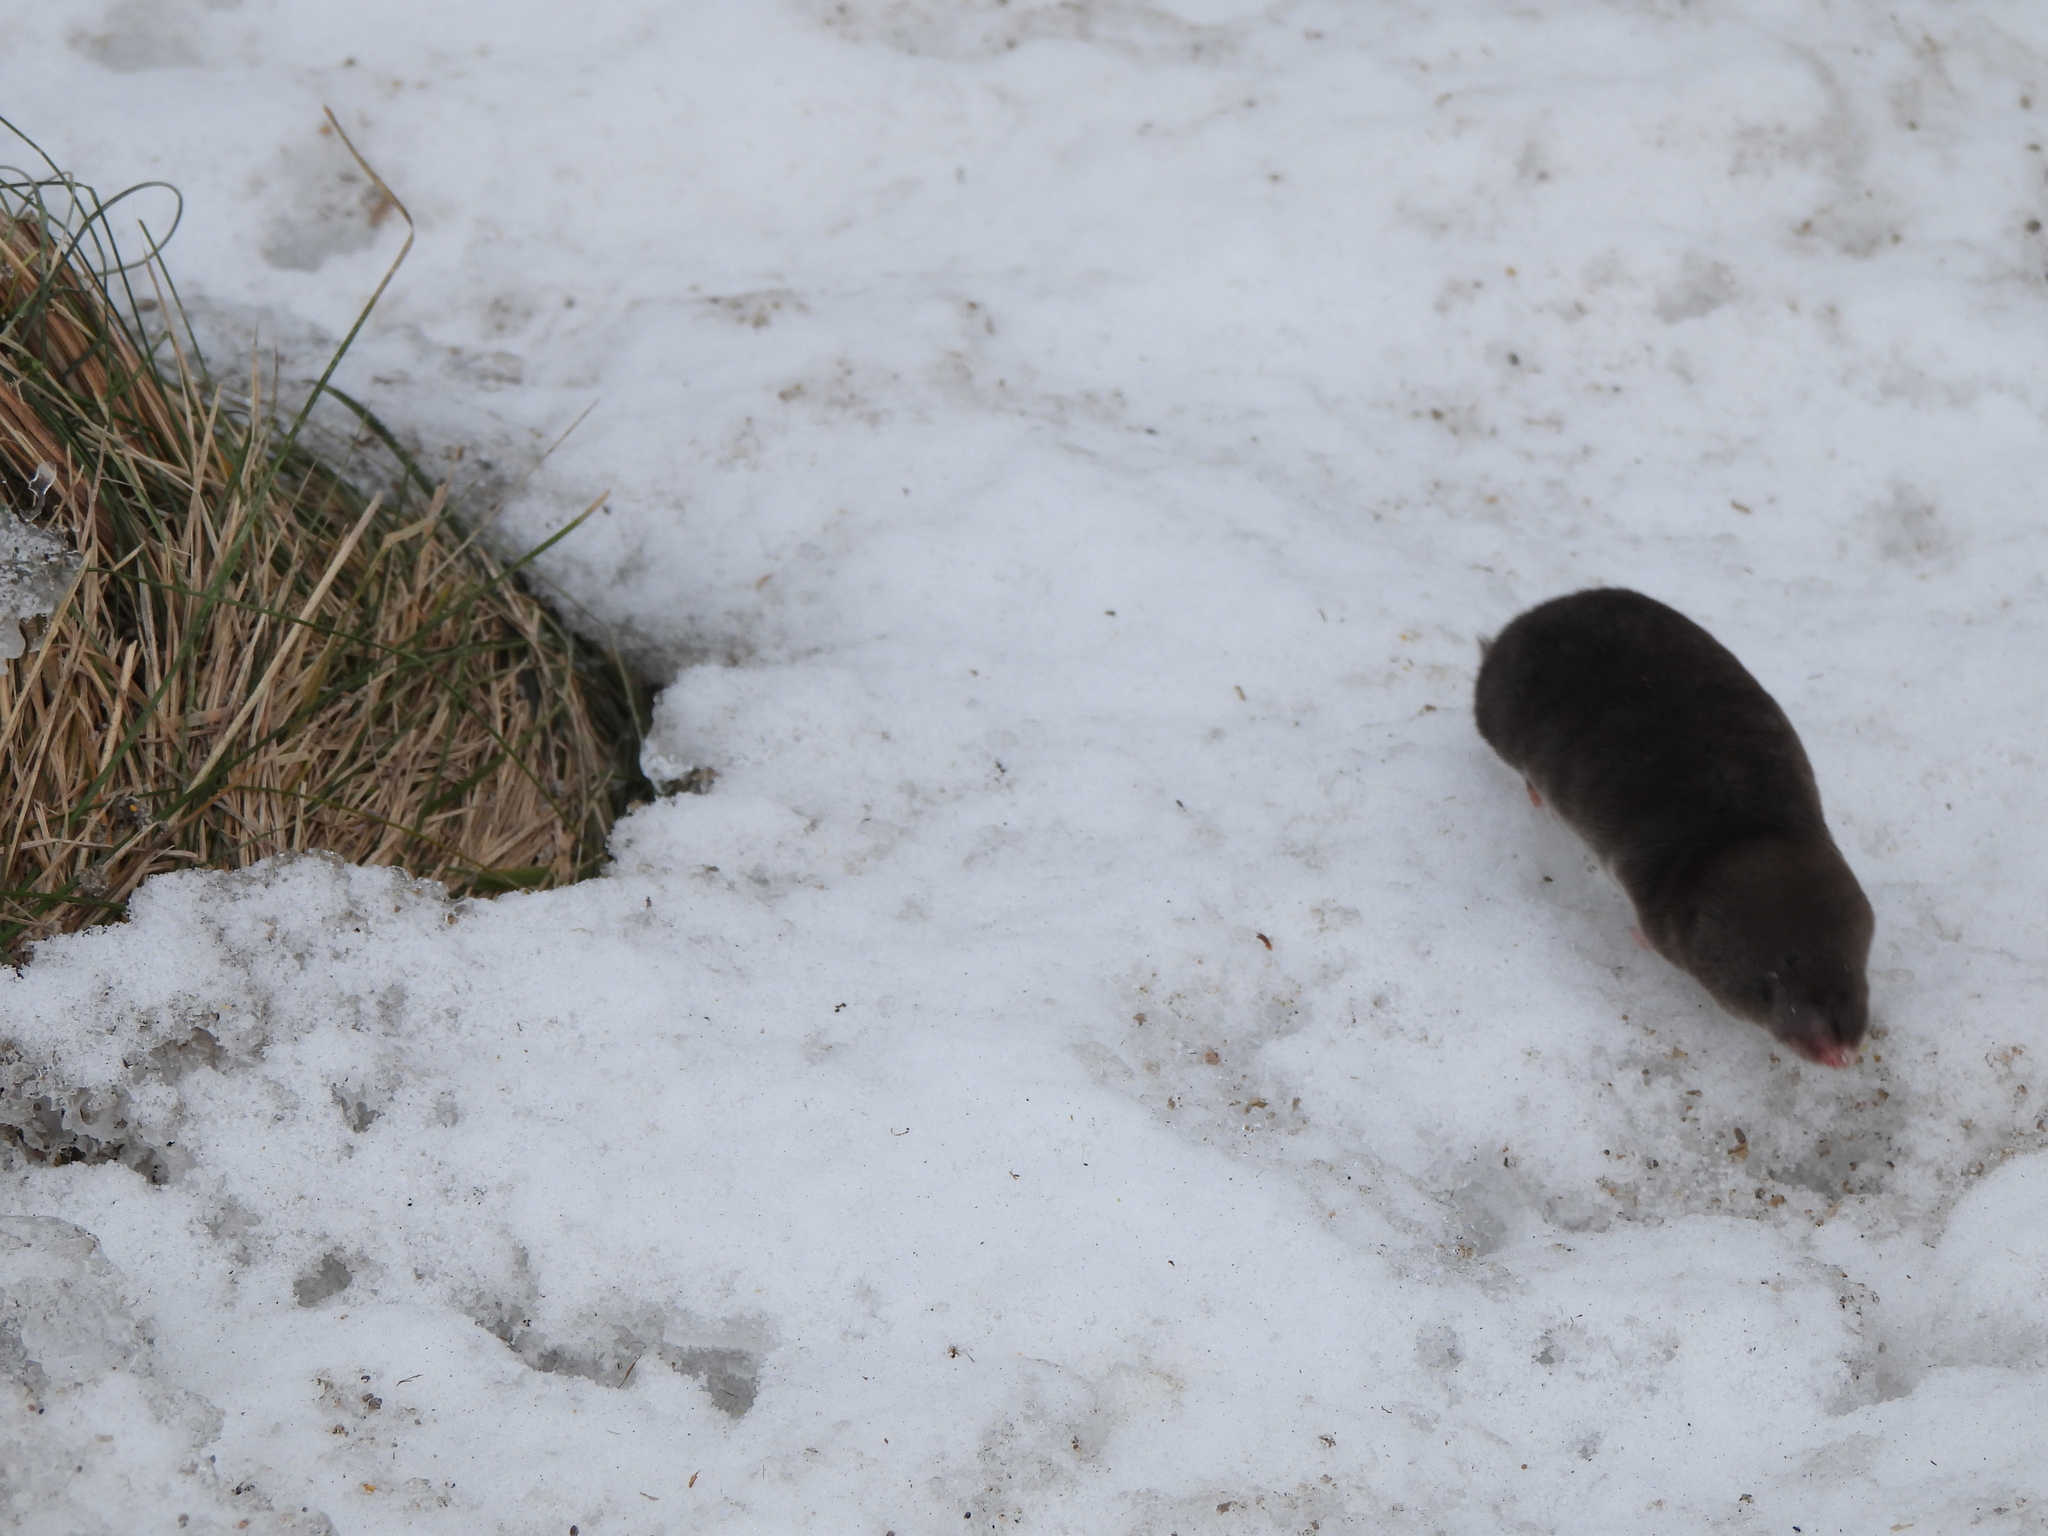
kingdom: Animalia
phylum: Chordata
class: Mammalia
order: Soricomorpha
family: Soricidae
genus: Blarina
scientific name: Blarina brevicauda
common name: Northern short-tailed shrew
